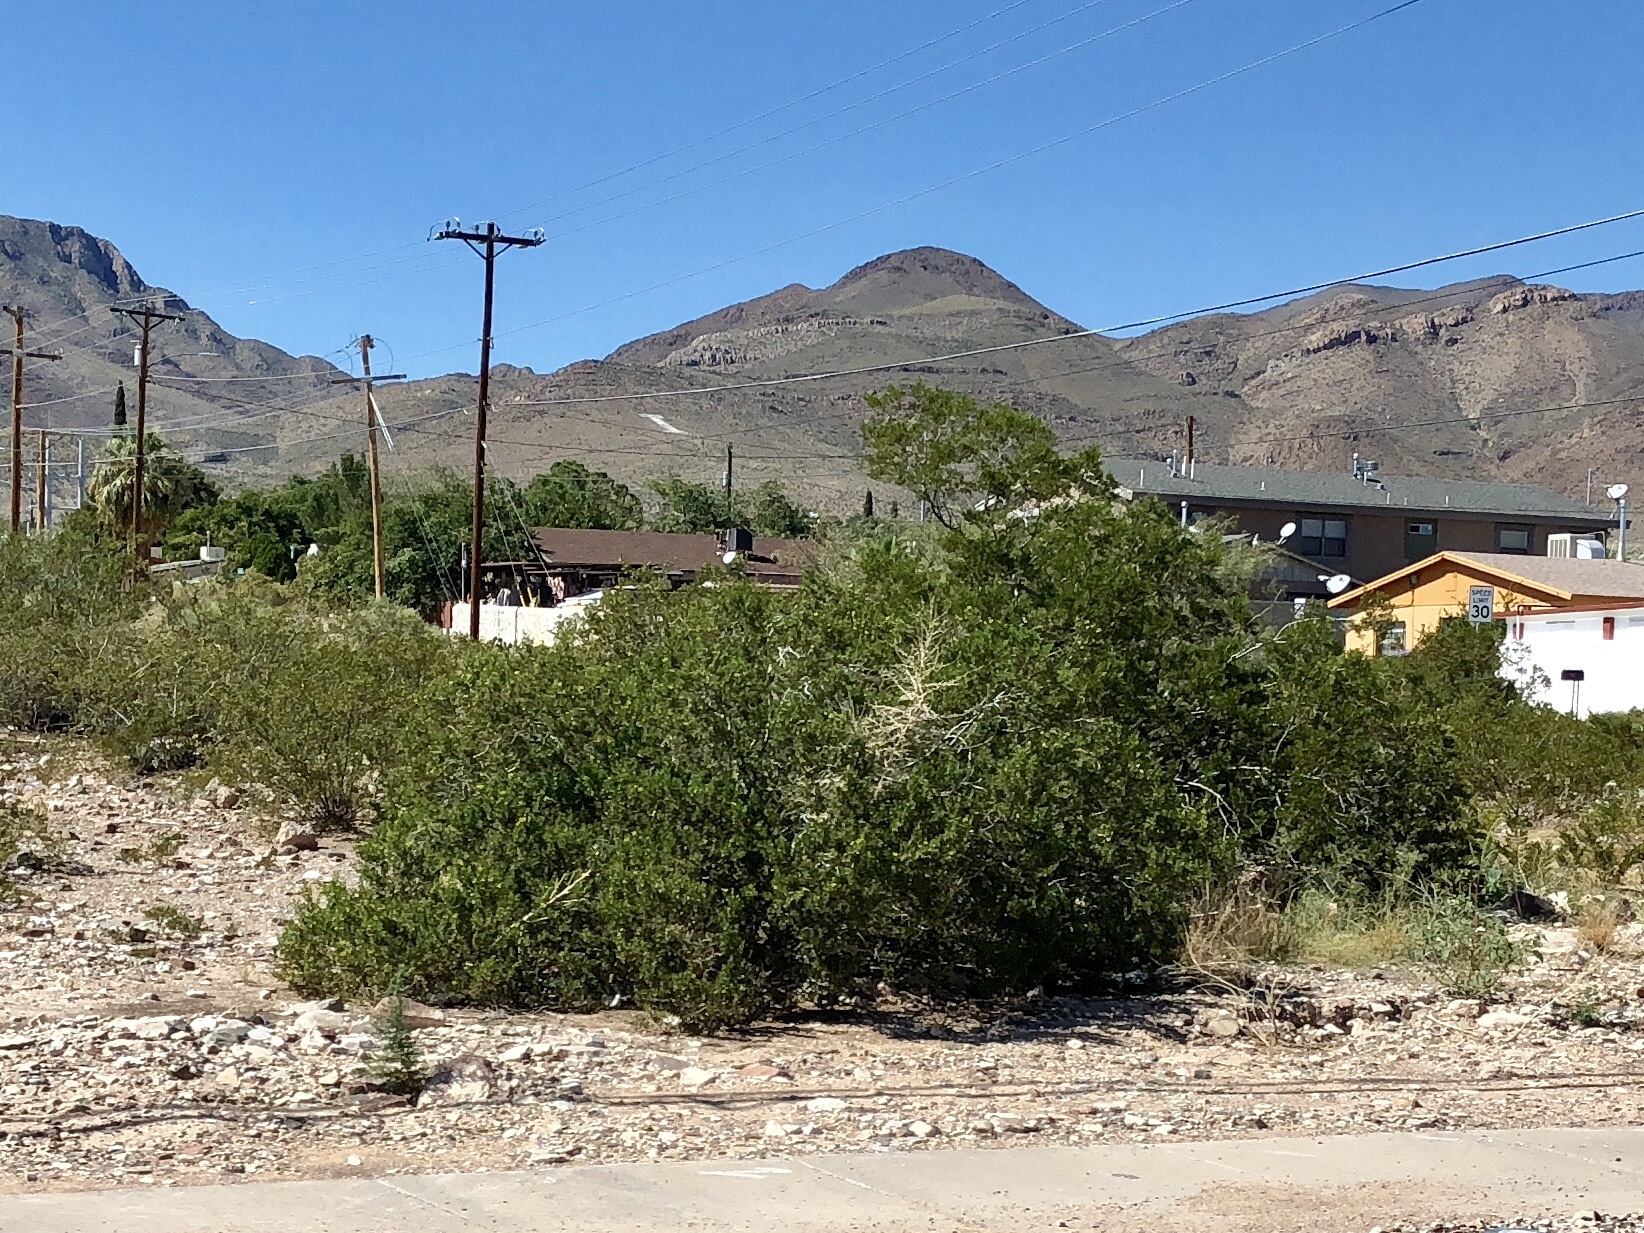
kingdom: Plantae
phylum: Tracheophyta
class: Magnoliopsida
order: Zygophyllales
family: Zygophyllaceae
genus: Larrea
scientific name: Larrea tridentata
